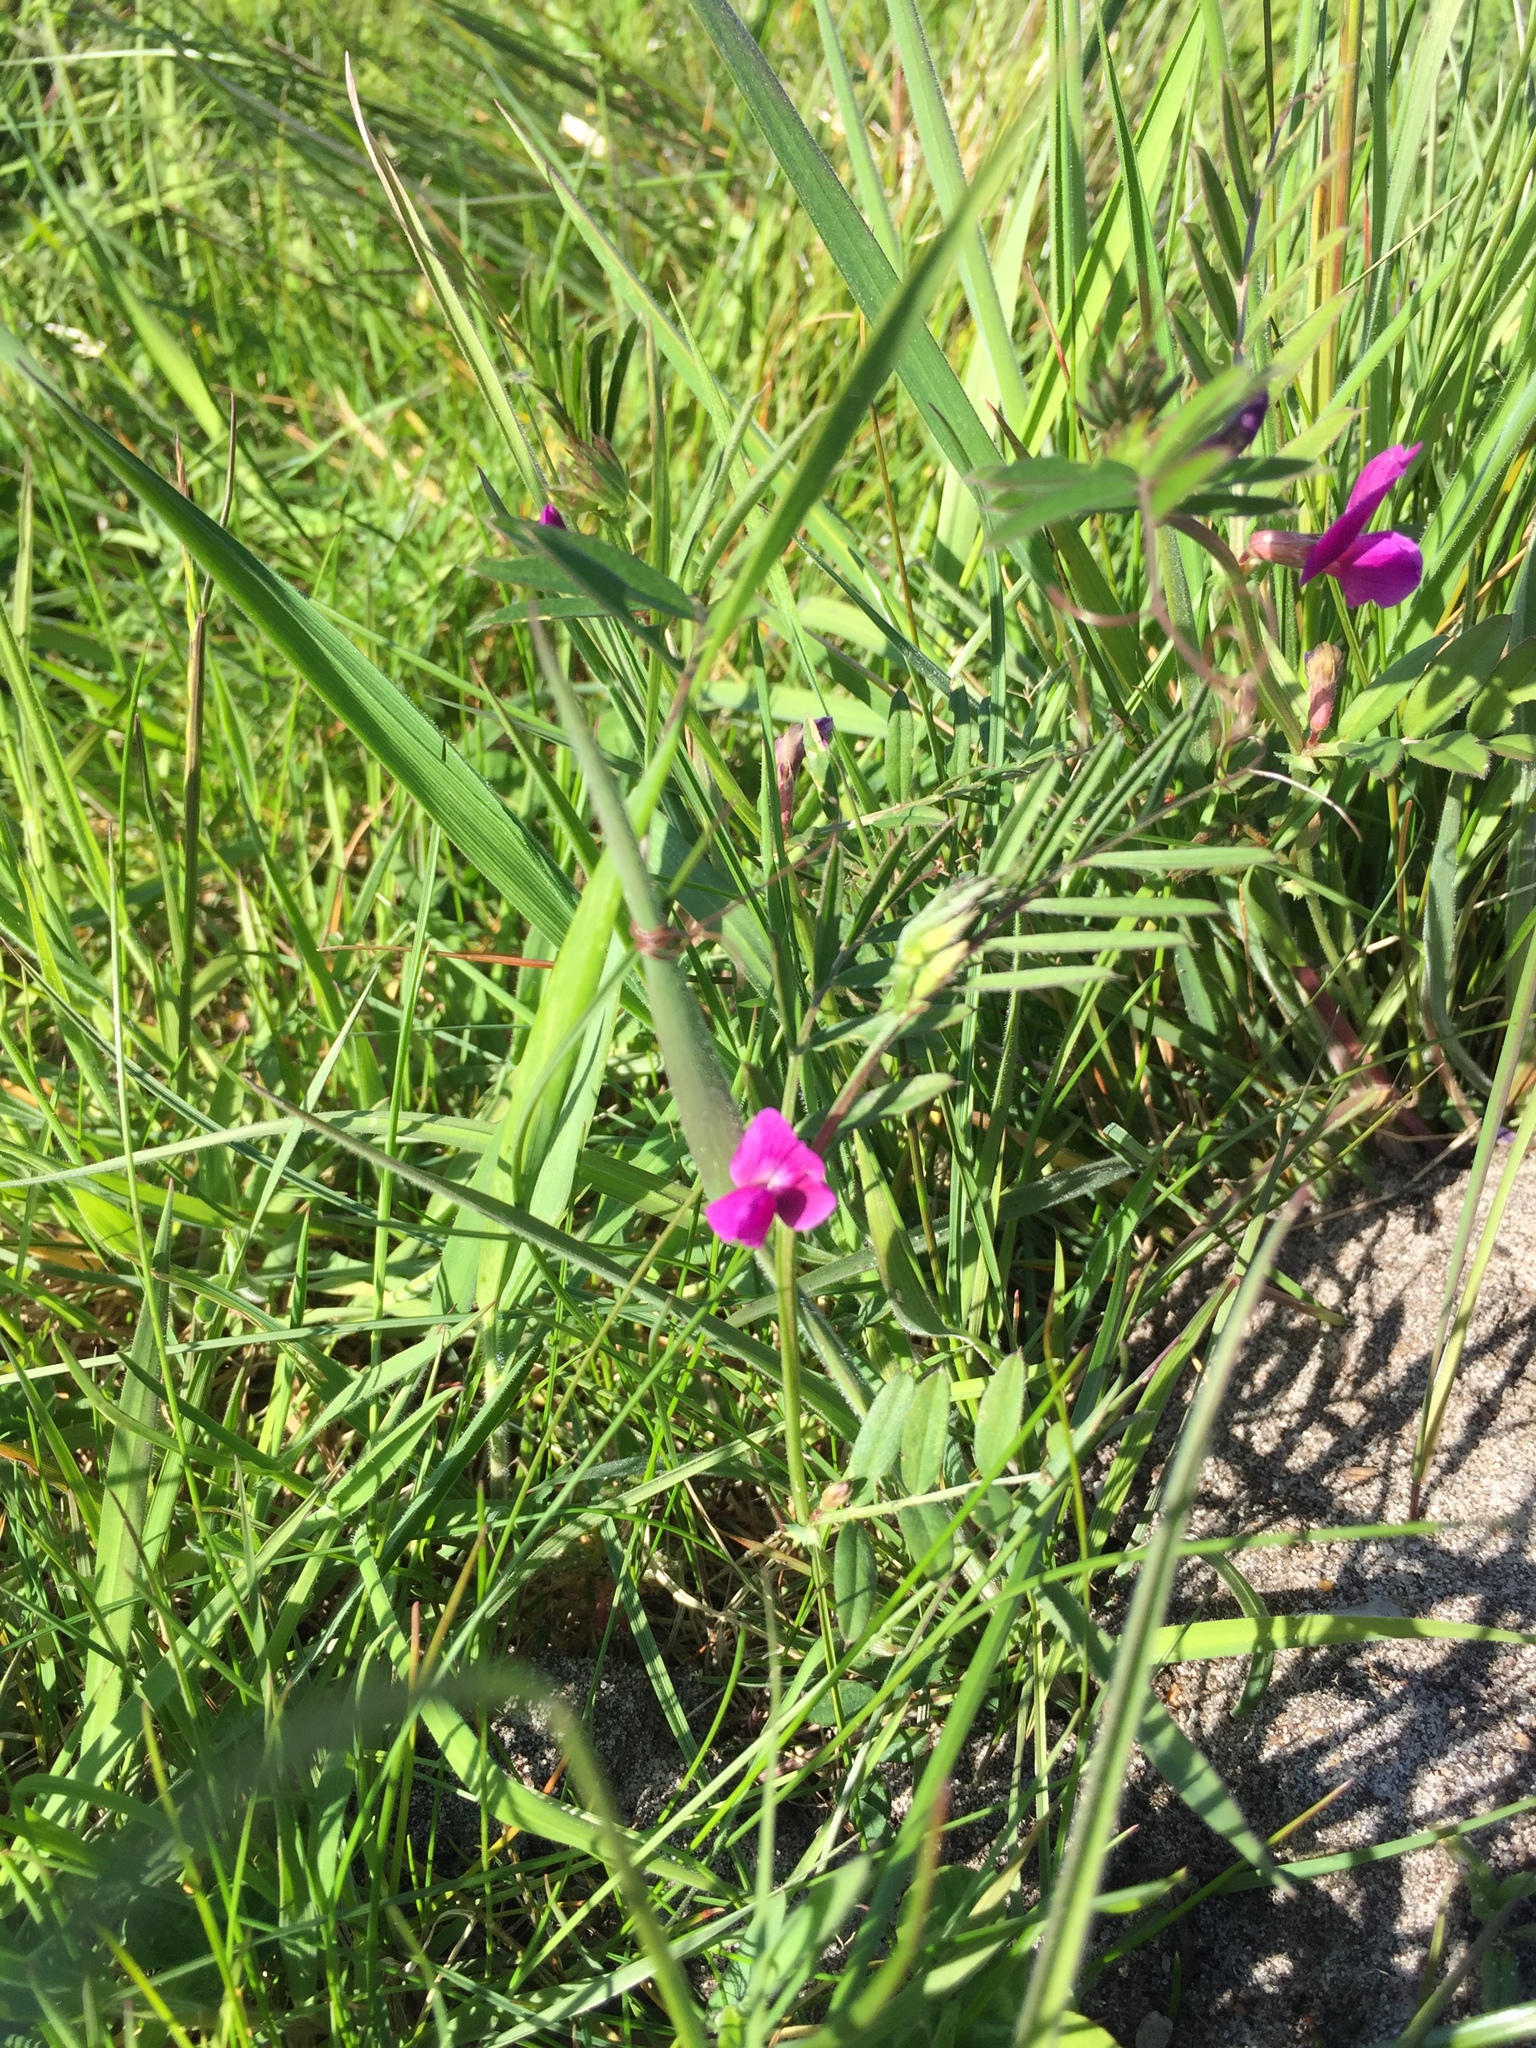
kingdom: Plantae
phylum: Tracheophyta
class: Magnoliopsida
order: Fabales
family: Fabaceae
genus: Vicia
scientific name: Vicia sativa
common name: Garden vetch
